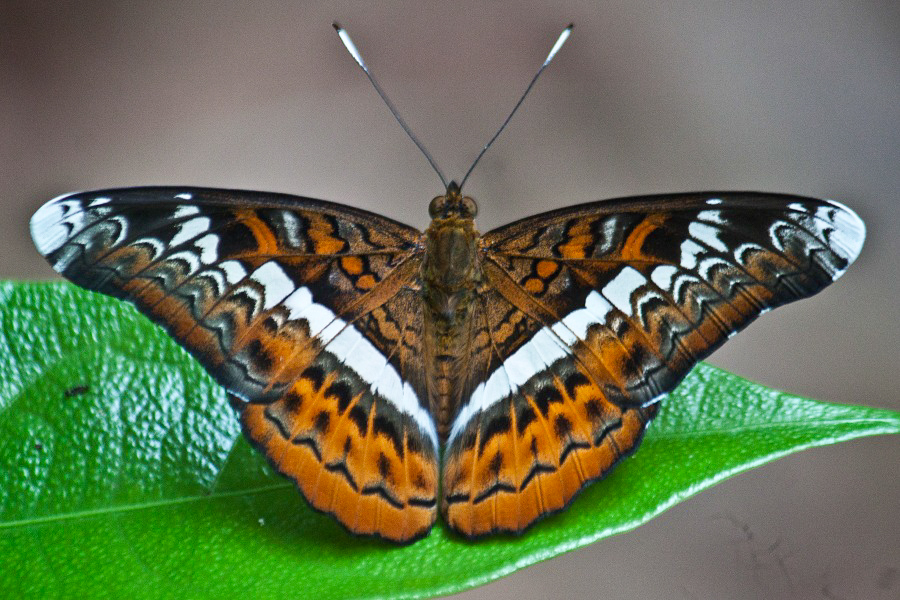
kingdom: Animalia
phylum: Arthropoda
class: Insecta
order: Lepidoptera
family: Nymphalidae
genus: Lebadea
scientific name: Lebadea martha
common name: Knight
